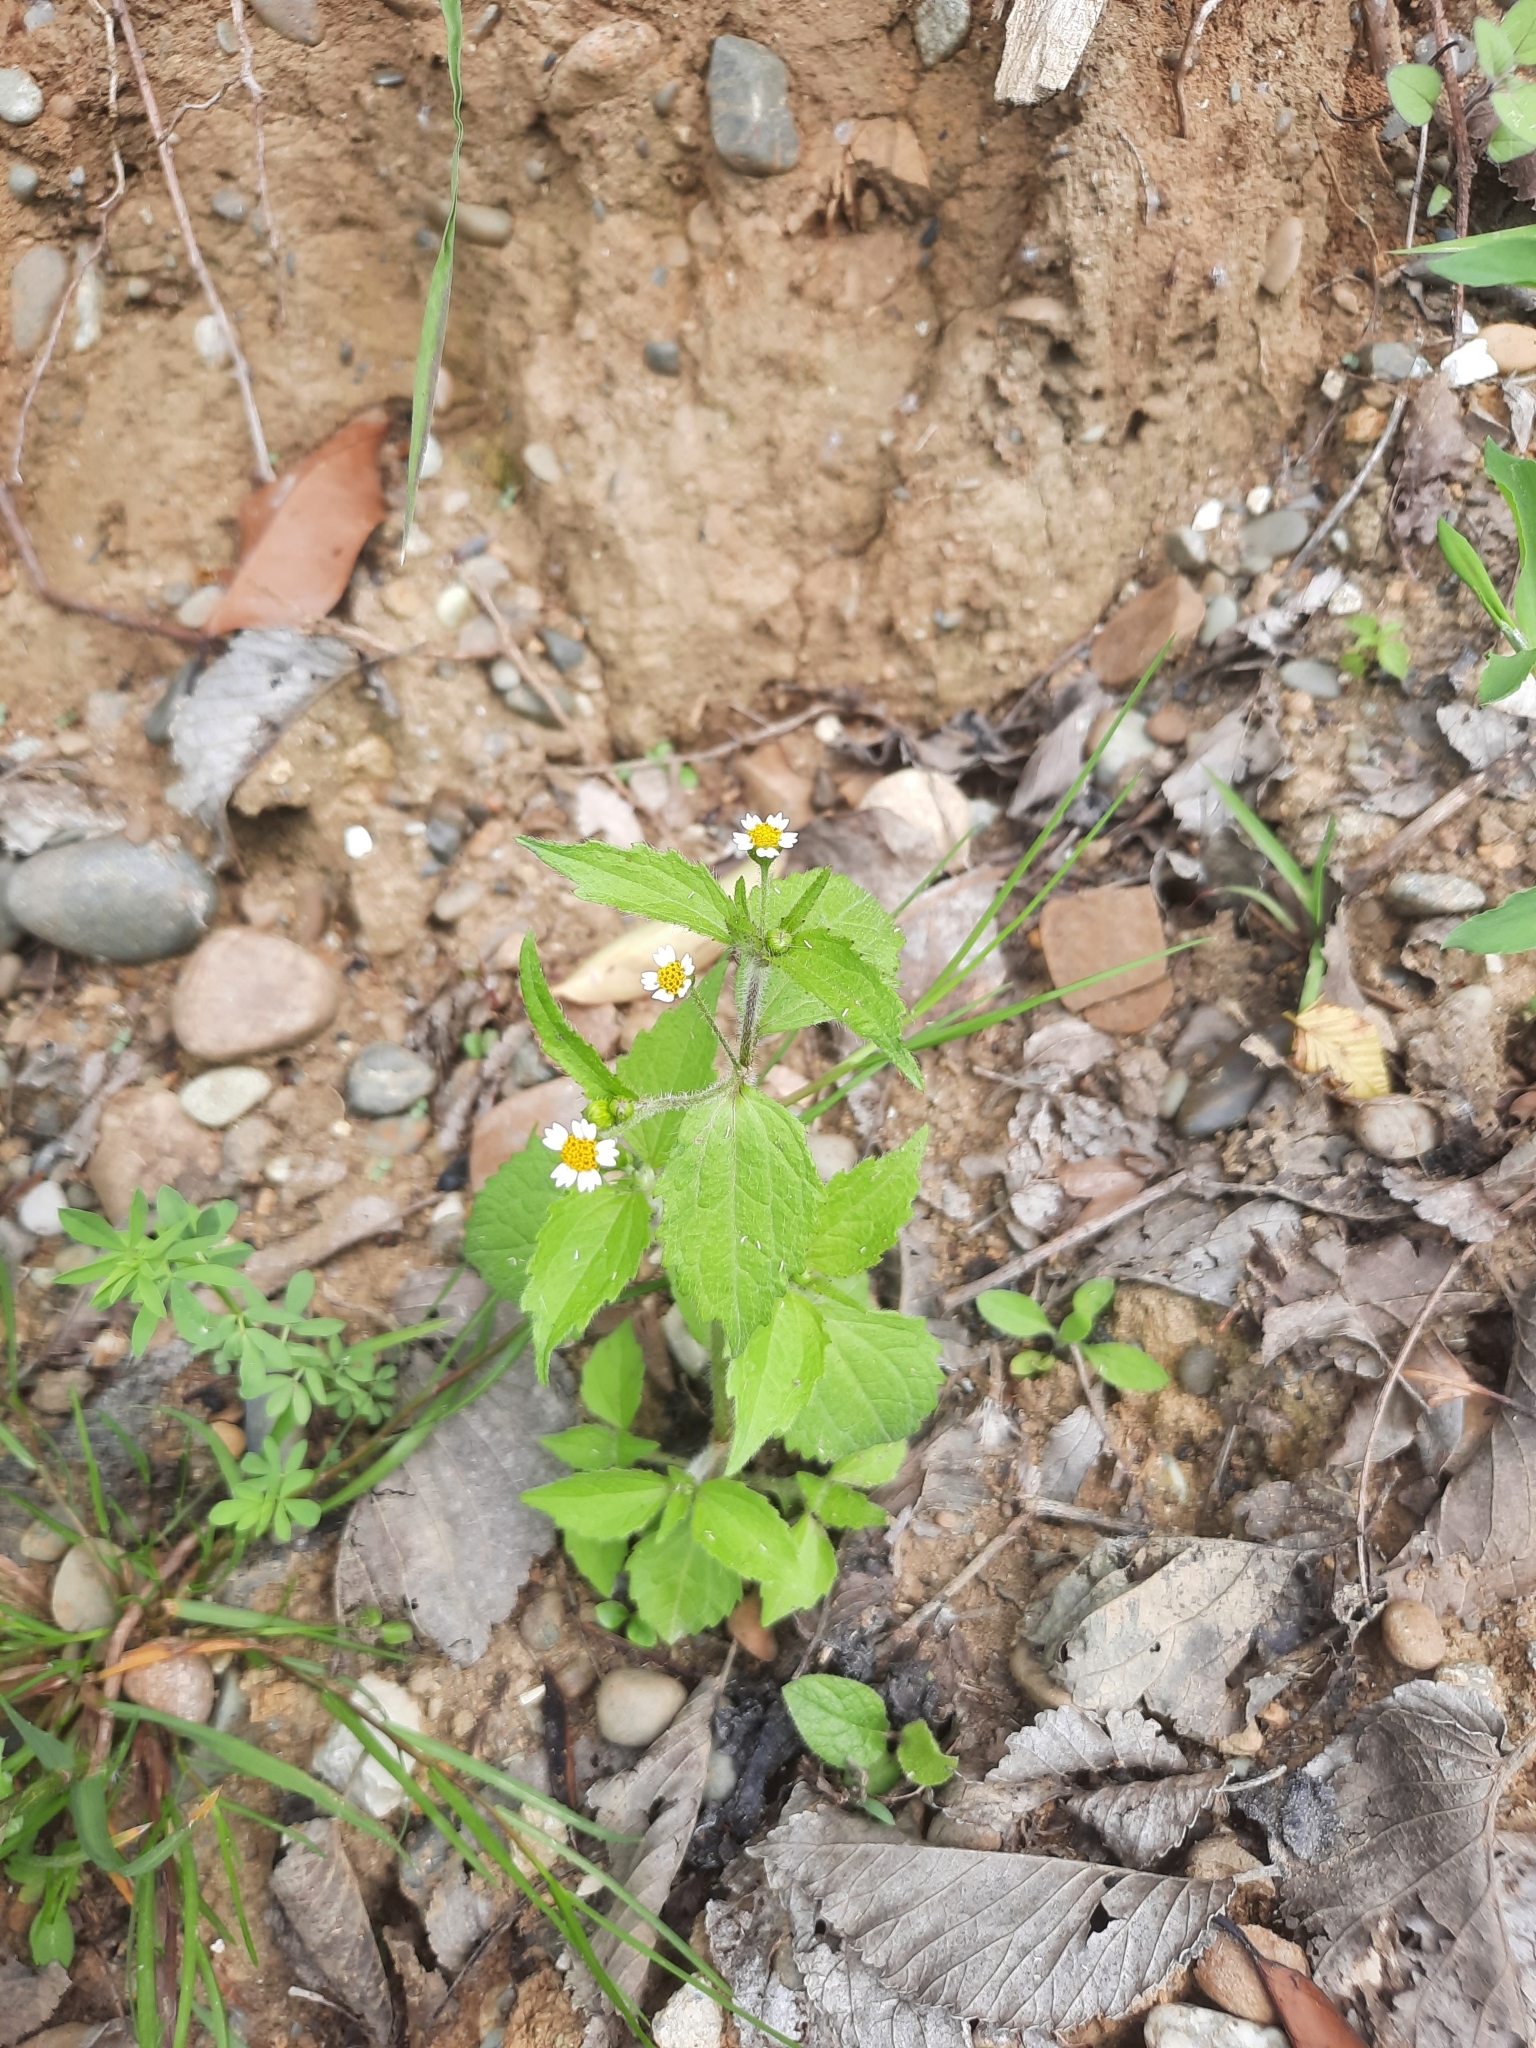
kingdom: Plantae
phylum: Tracheophyta
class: Magnoliopsida
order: Asterales
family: Asteraceae
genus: Galinsoga
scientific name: Galinsoga quadriradiata
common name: Shaggy soldier
